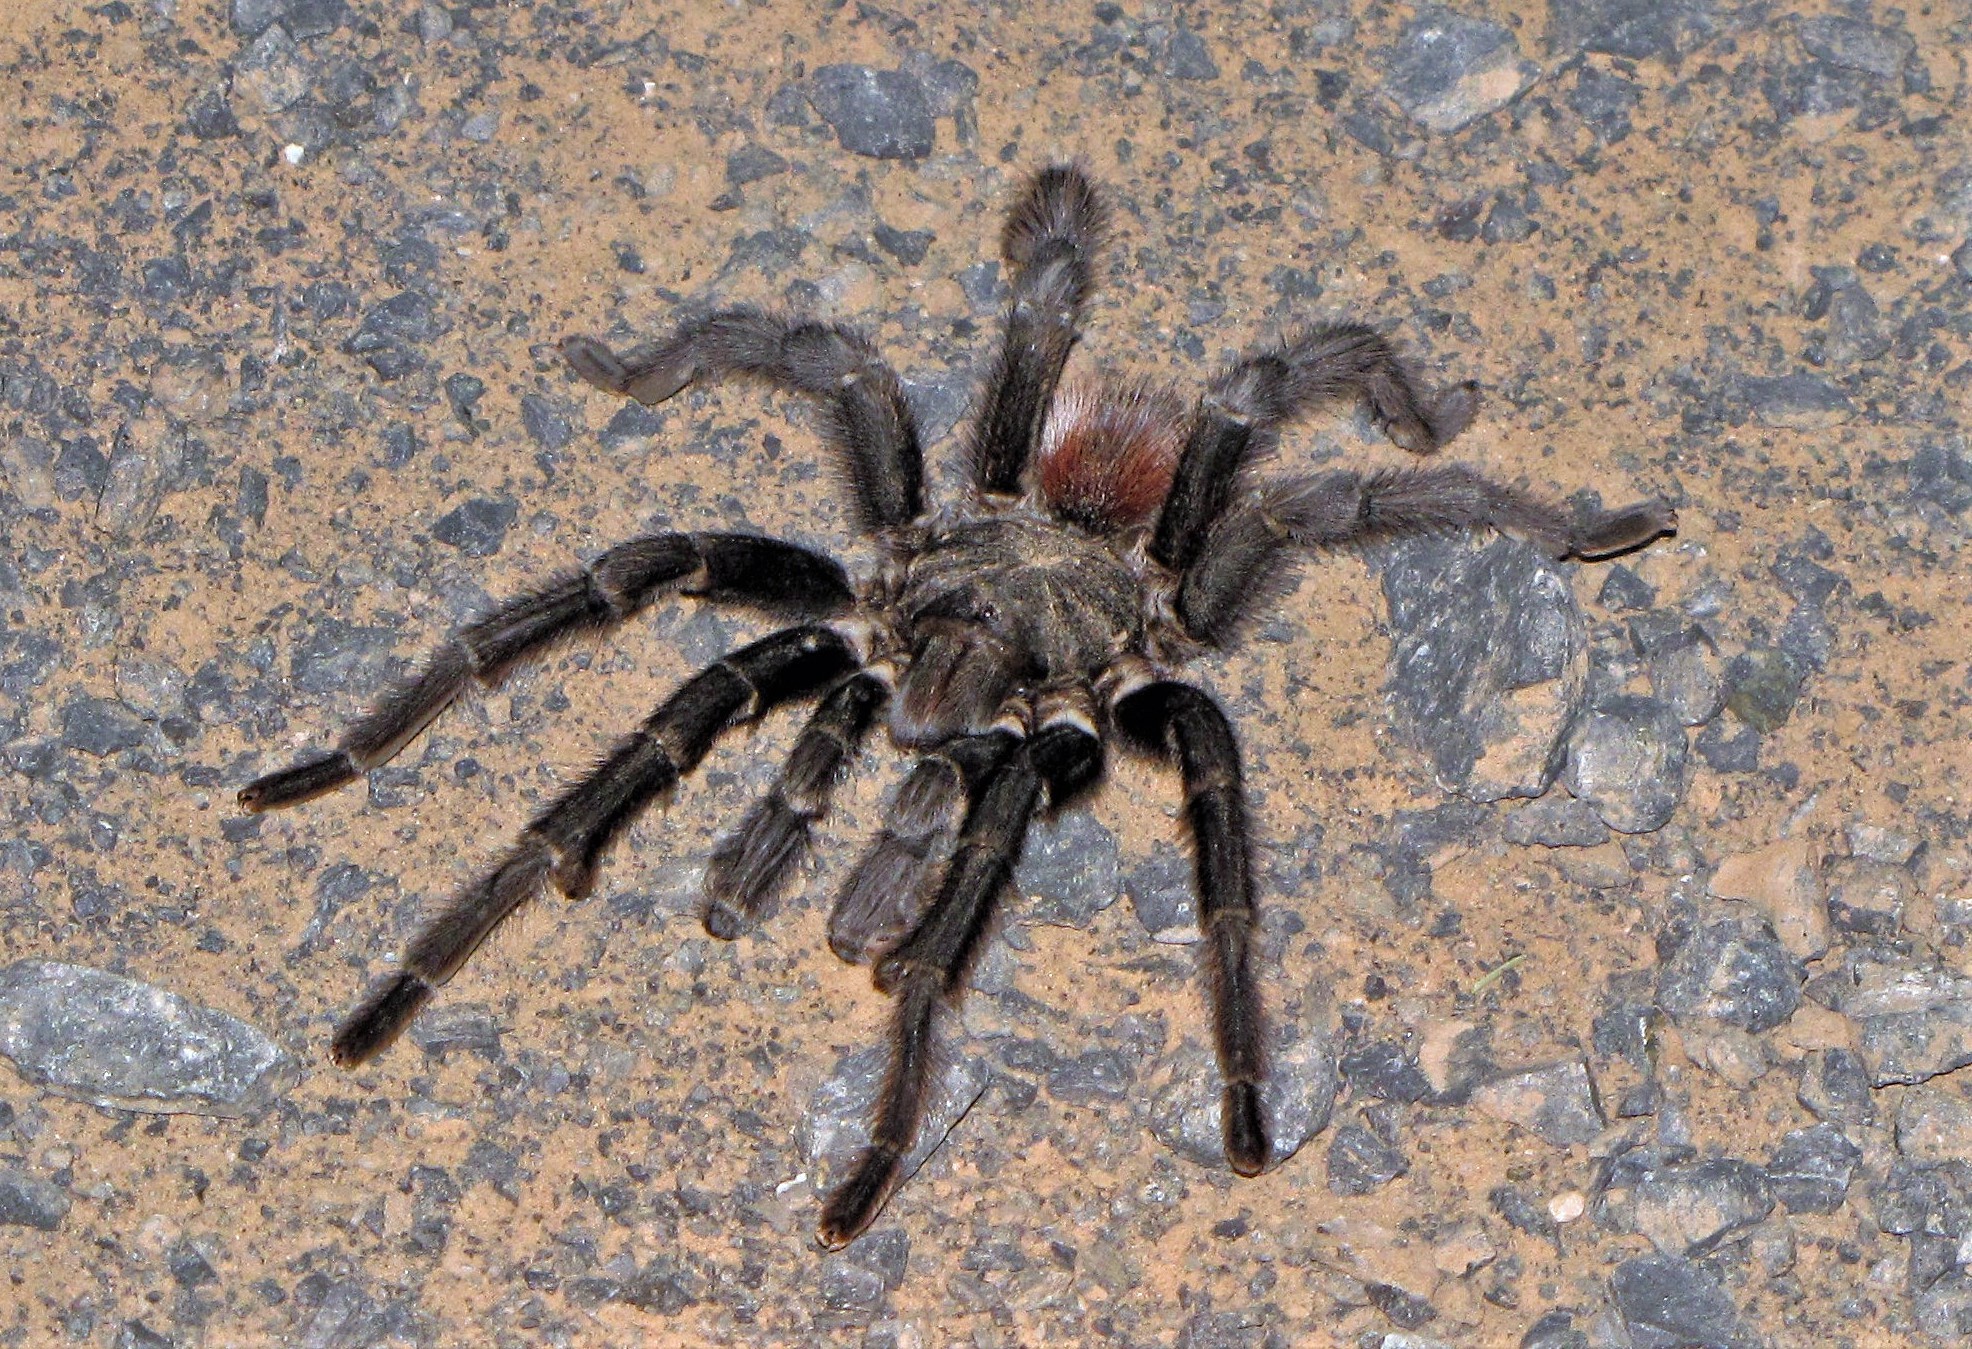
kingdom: Animalia
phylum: Arthropoda
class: Arachnida
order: Araneae
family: Theraphosidae
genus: Acanthoscurria
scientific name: Acanthoscurria chacoana
